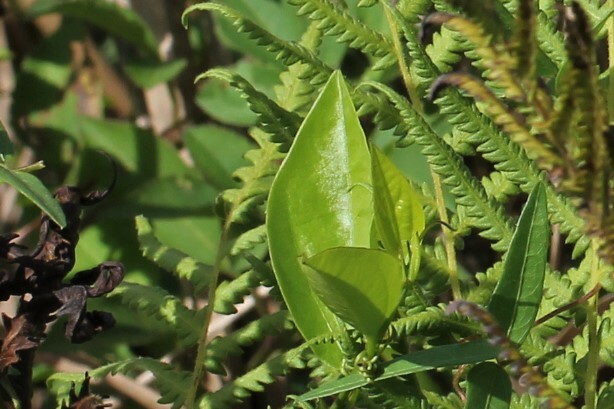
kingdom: Plantae
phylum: Tracheophyta
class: Liliopsida
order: Liliales
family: Smilacaceae
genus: Smilax
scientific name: Smilax laurifolia
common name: Bamboovine
